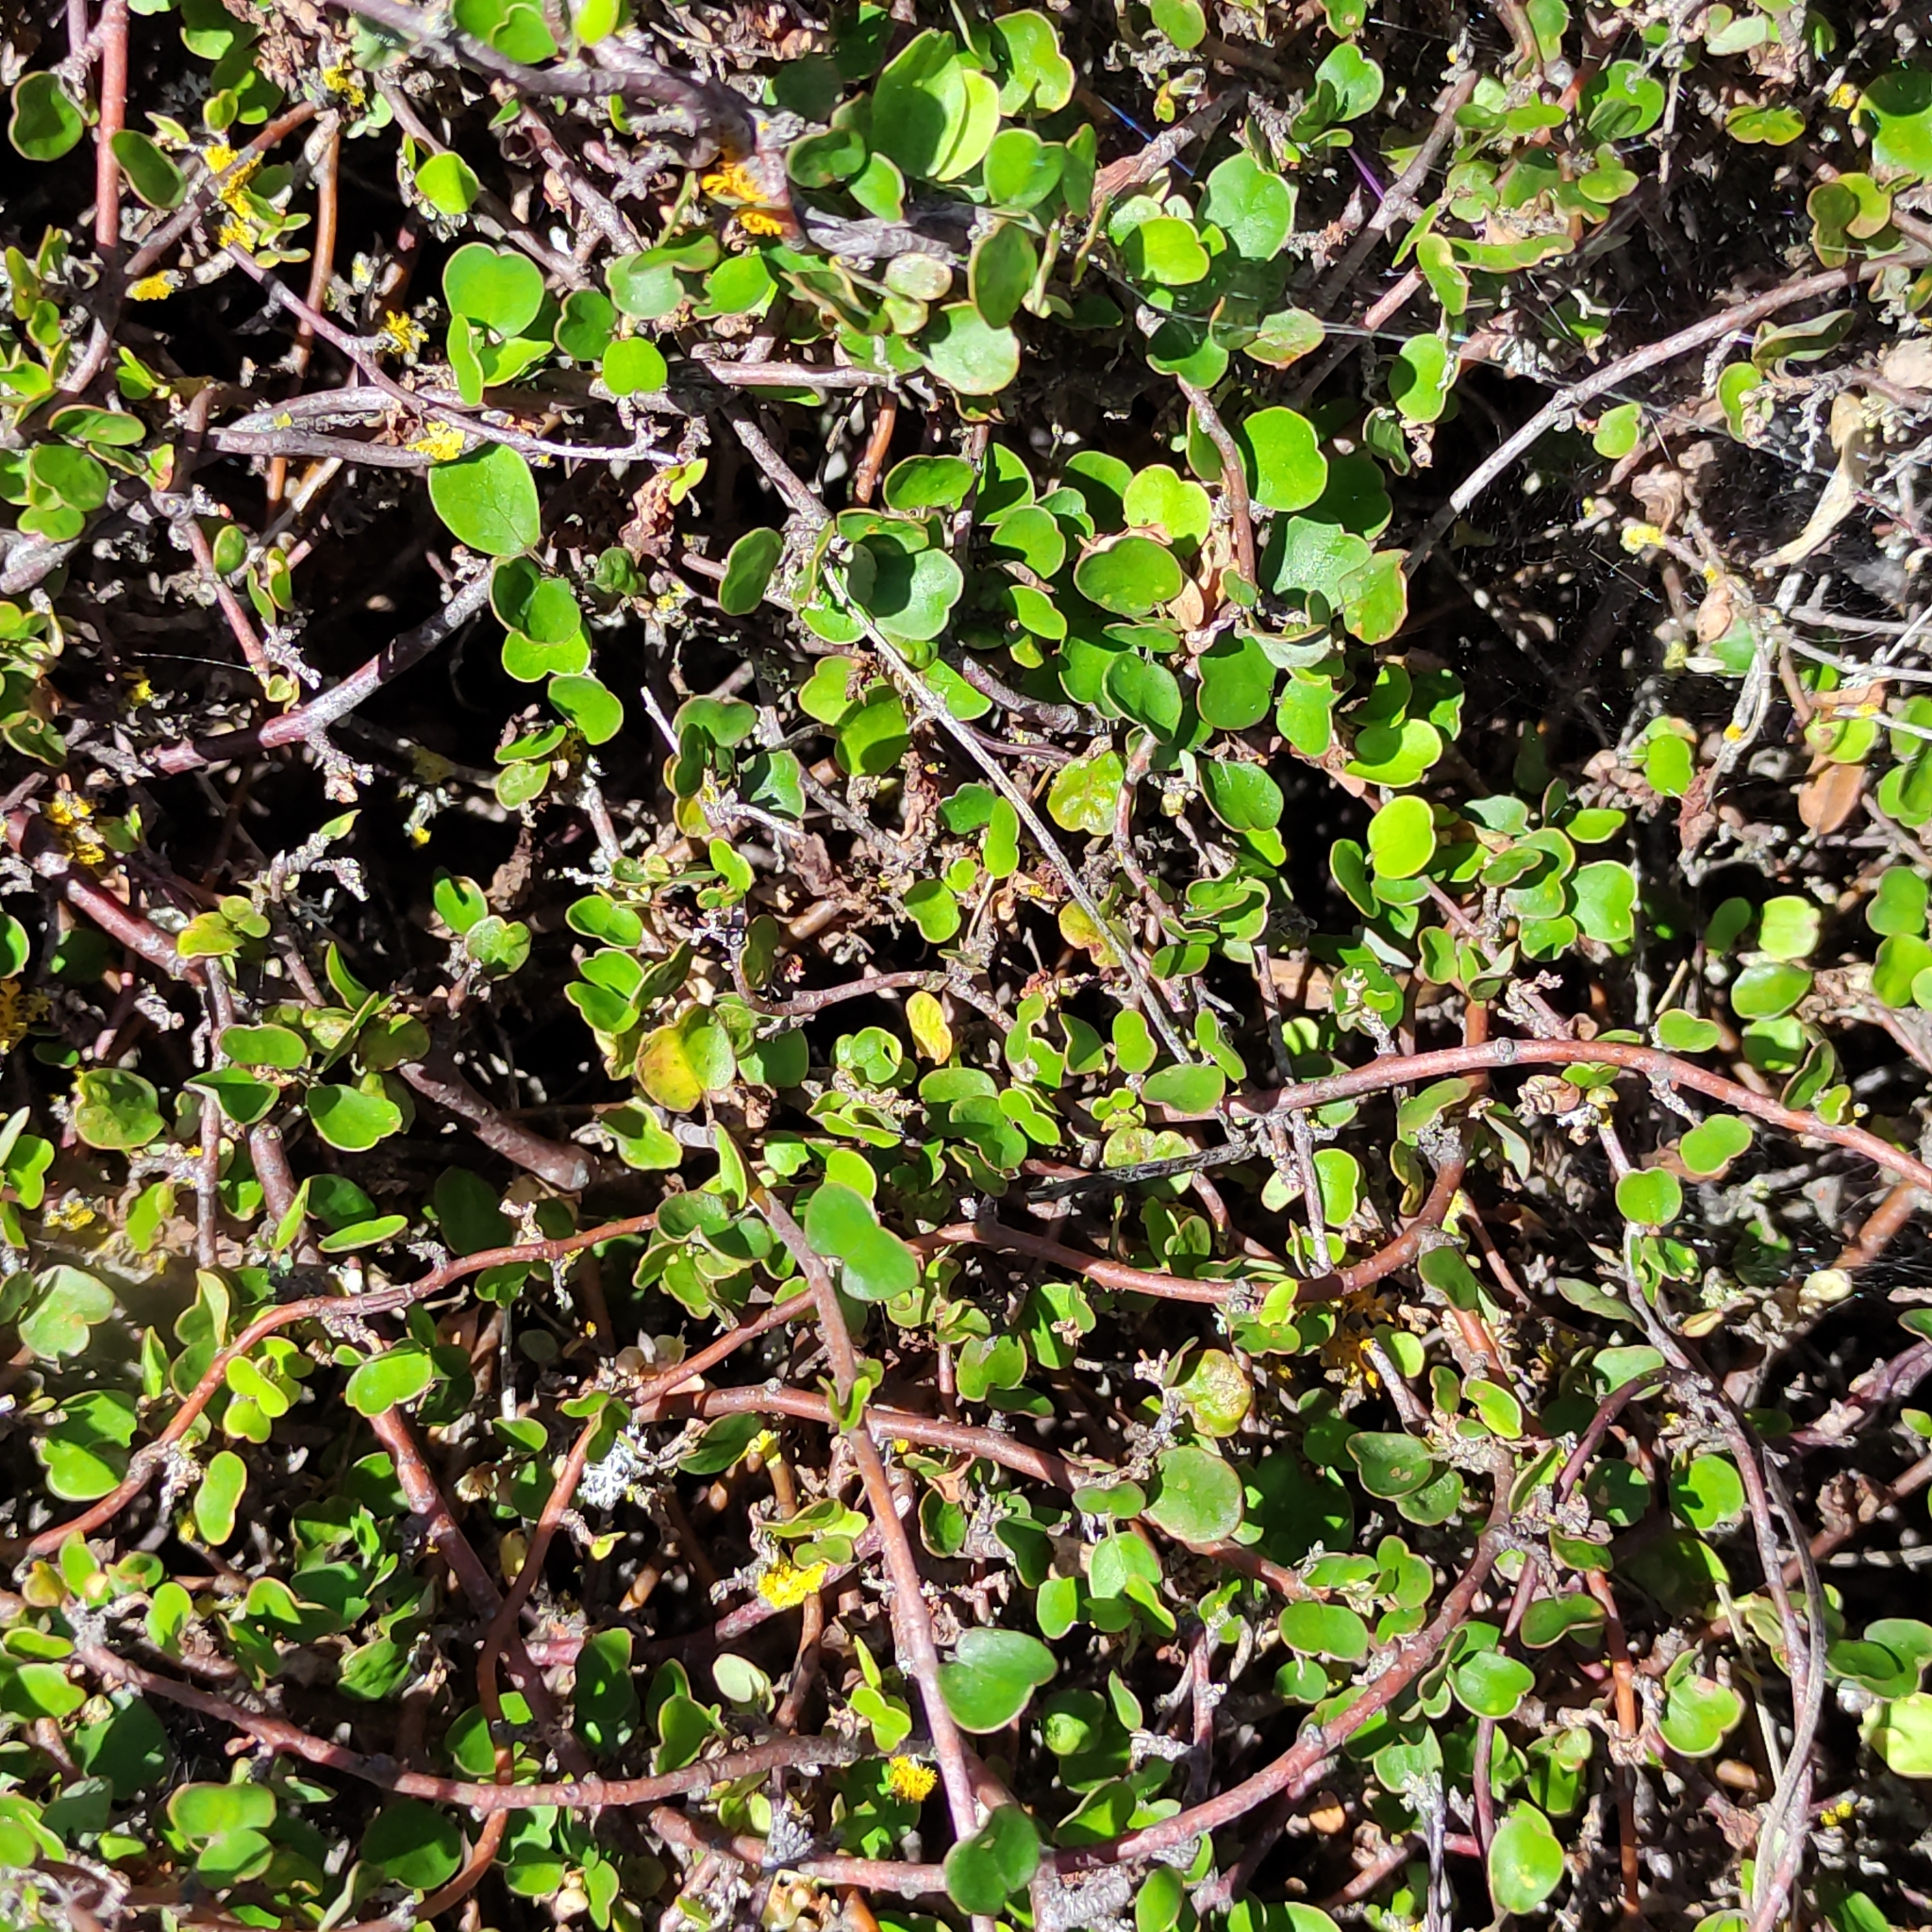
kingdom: Plantae
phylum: Tracheophyta
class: Magnoliopsida
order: Caryophyllales
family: Polygonaceae
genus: Muehlenbeckia
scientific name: Muehlenbeckia complexa
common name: Wireplant
